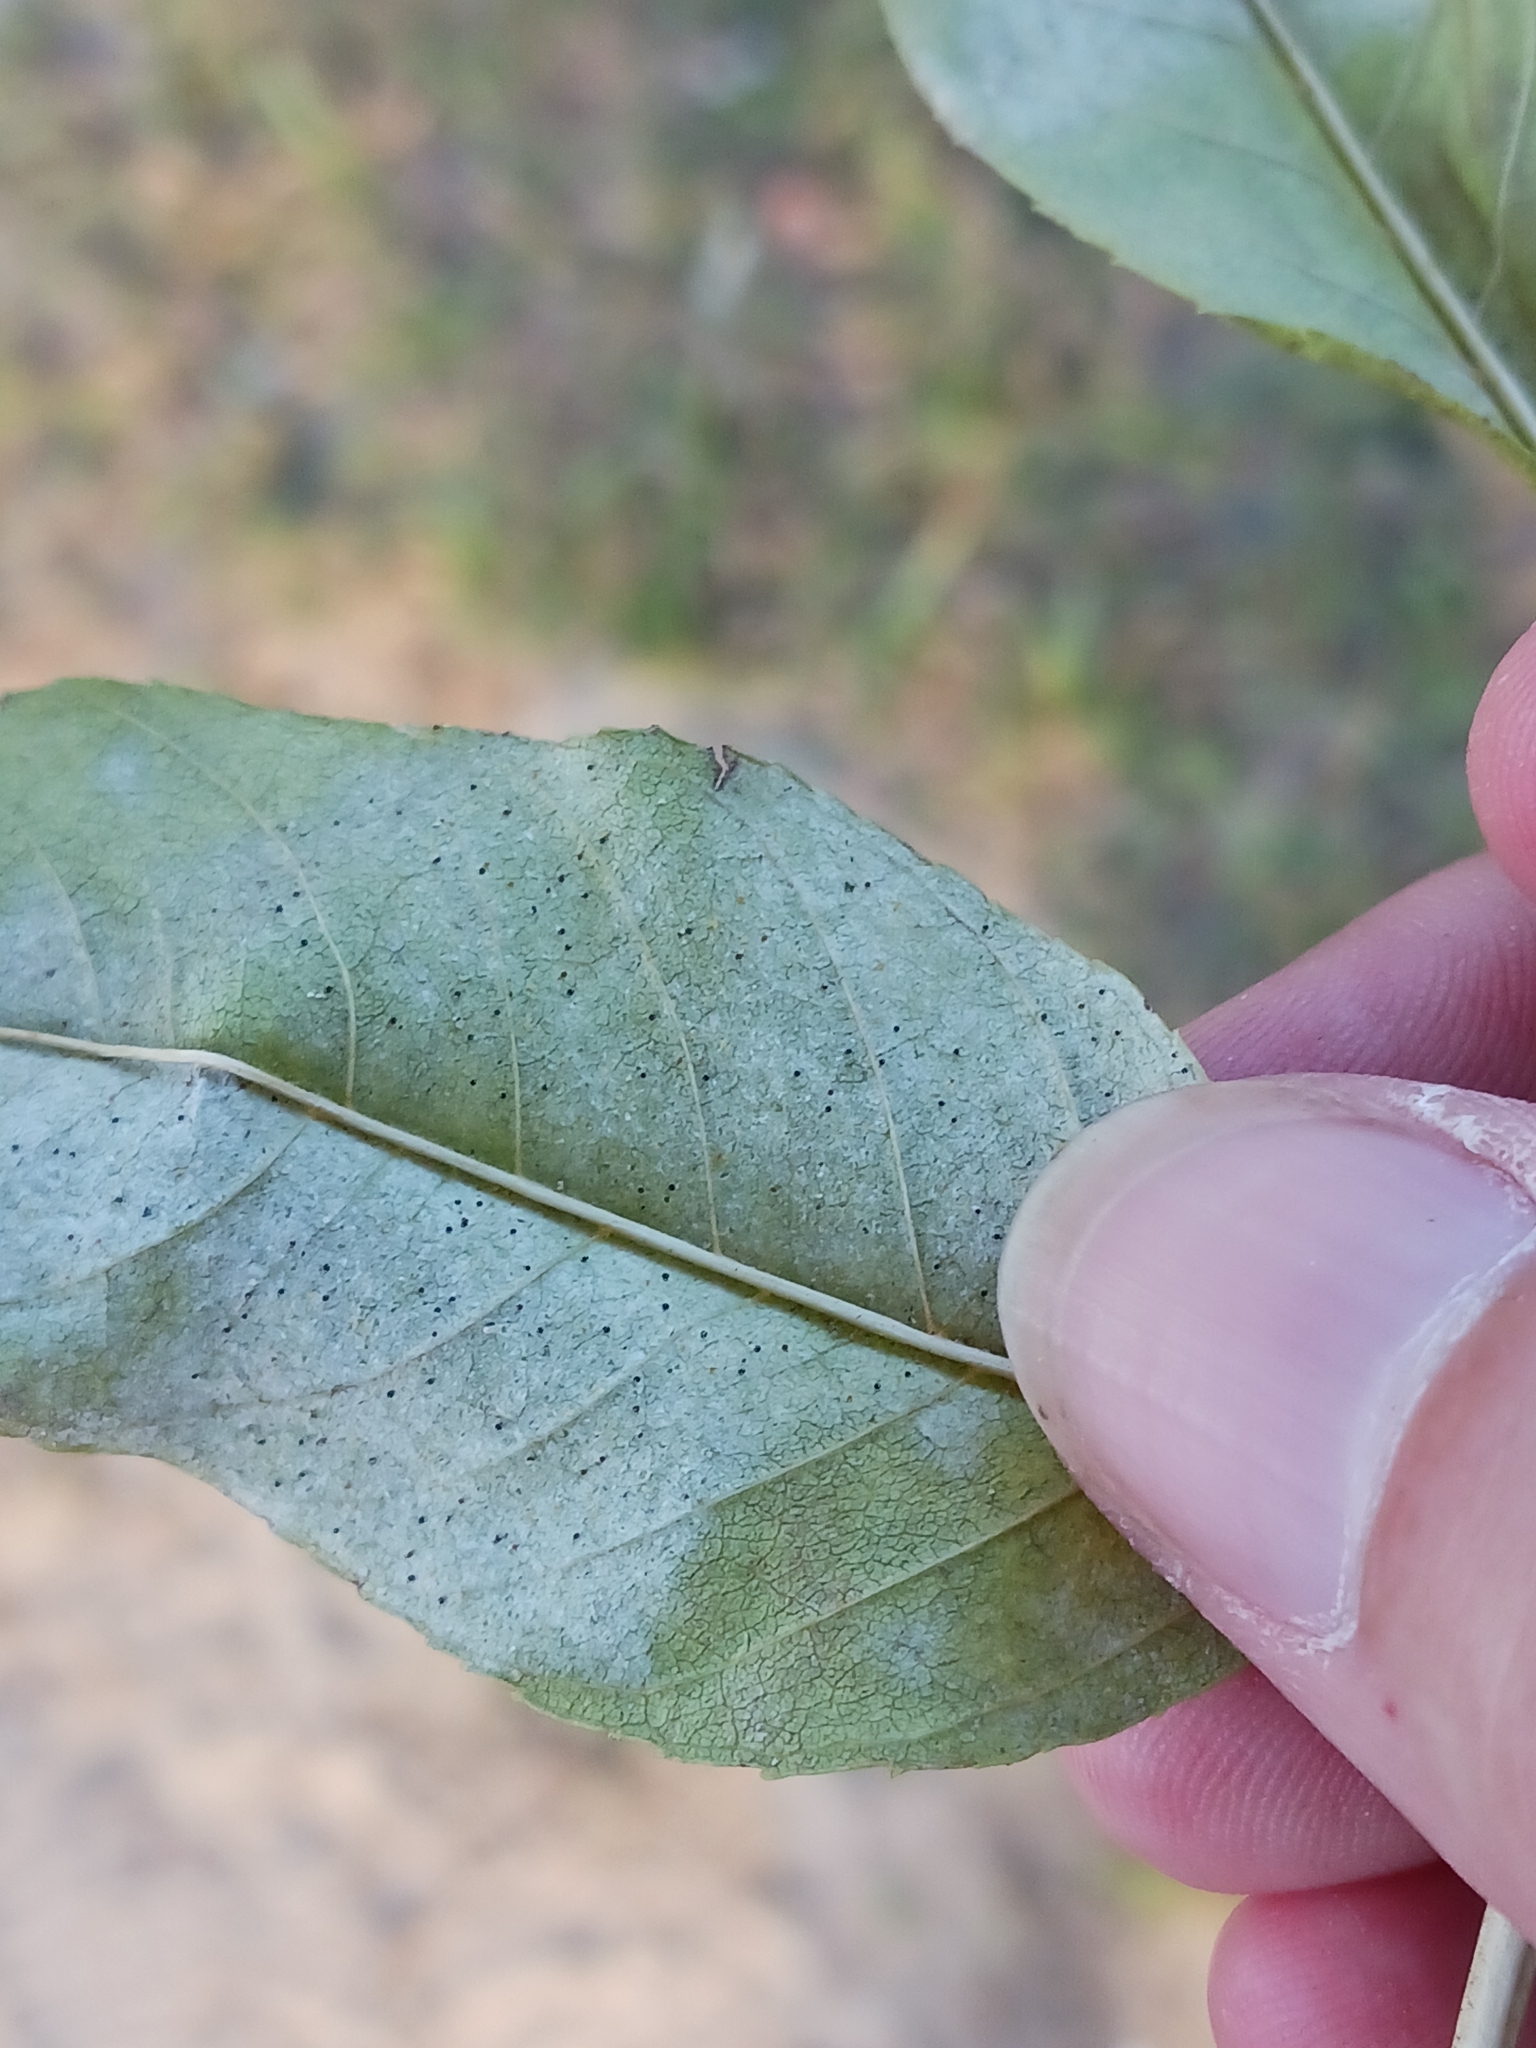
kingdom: Fungi
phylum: Ascomycota
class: Leotiomycetes
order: Helotiales
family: Erysiphaceae
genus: Phyllactinia
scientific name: Phyllactinia fraxini
